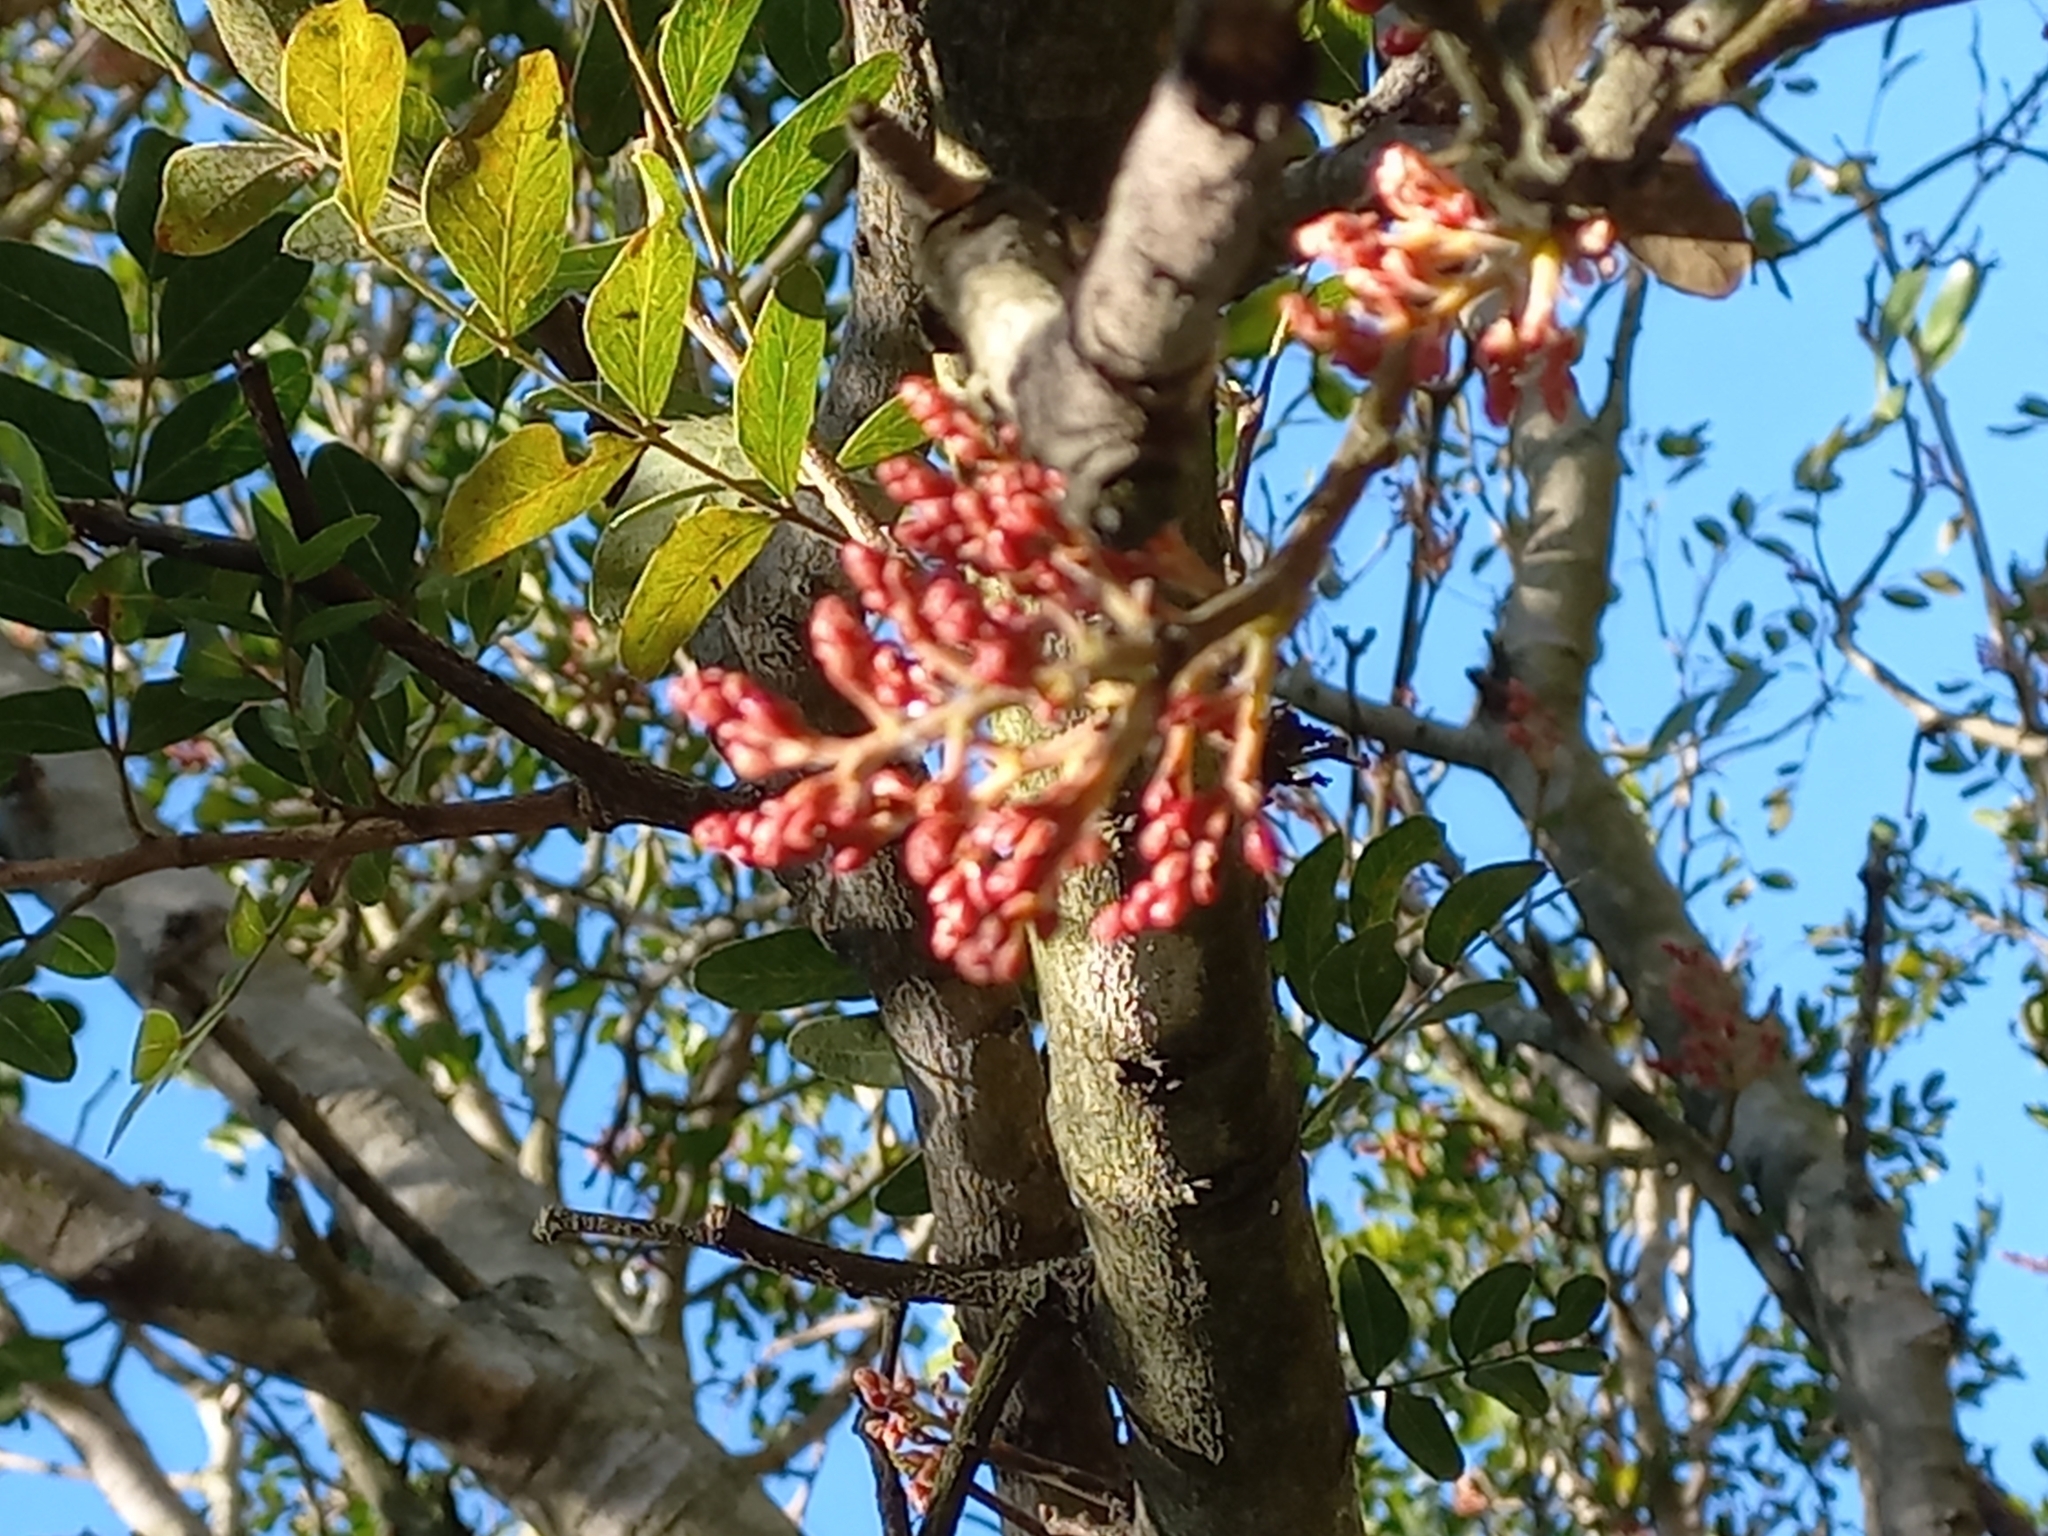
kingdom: Plantae
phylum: Tracheophyta
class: Magnoliopsida
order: Fabales
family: Fabaceae
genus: Schotia
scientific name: Schotia brachypetala
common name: Weeping boer-bean
